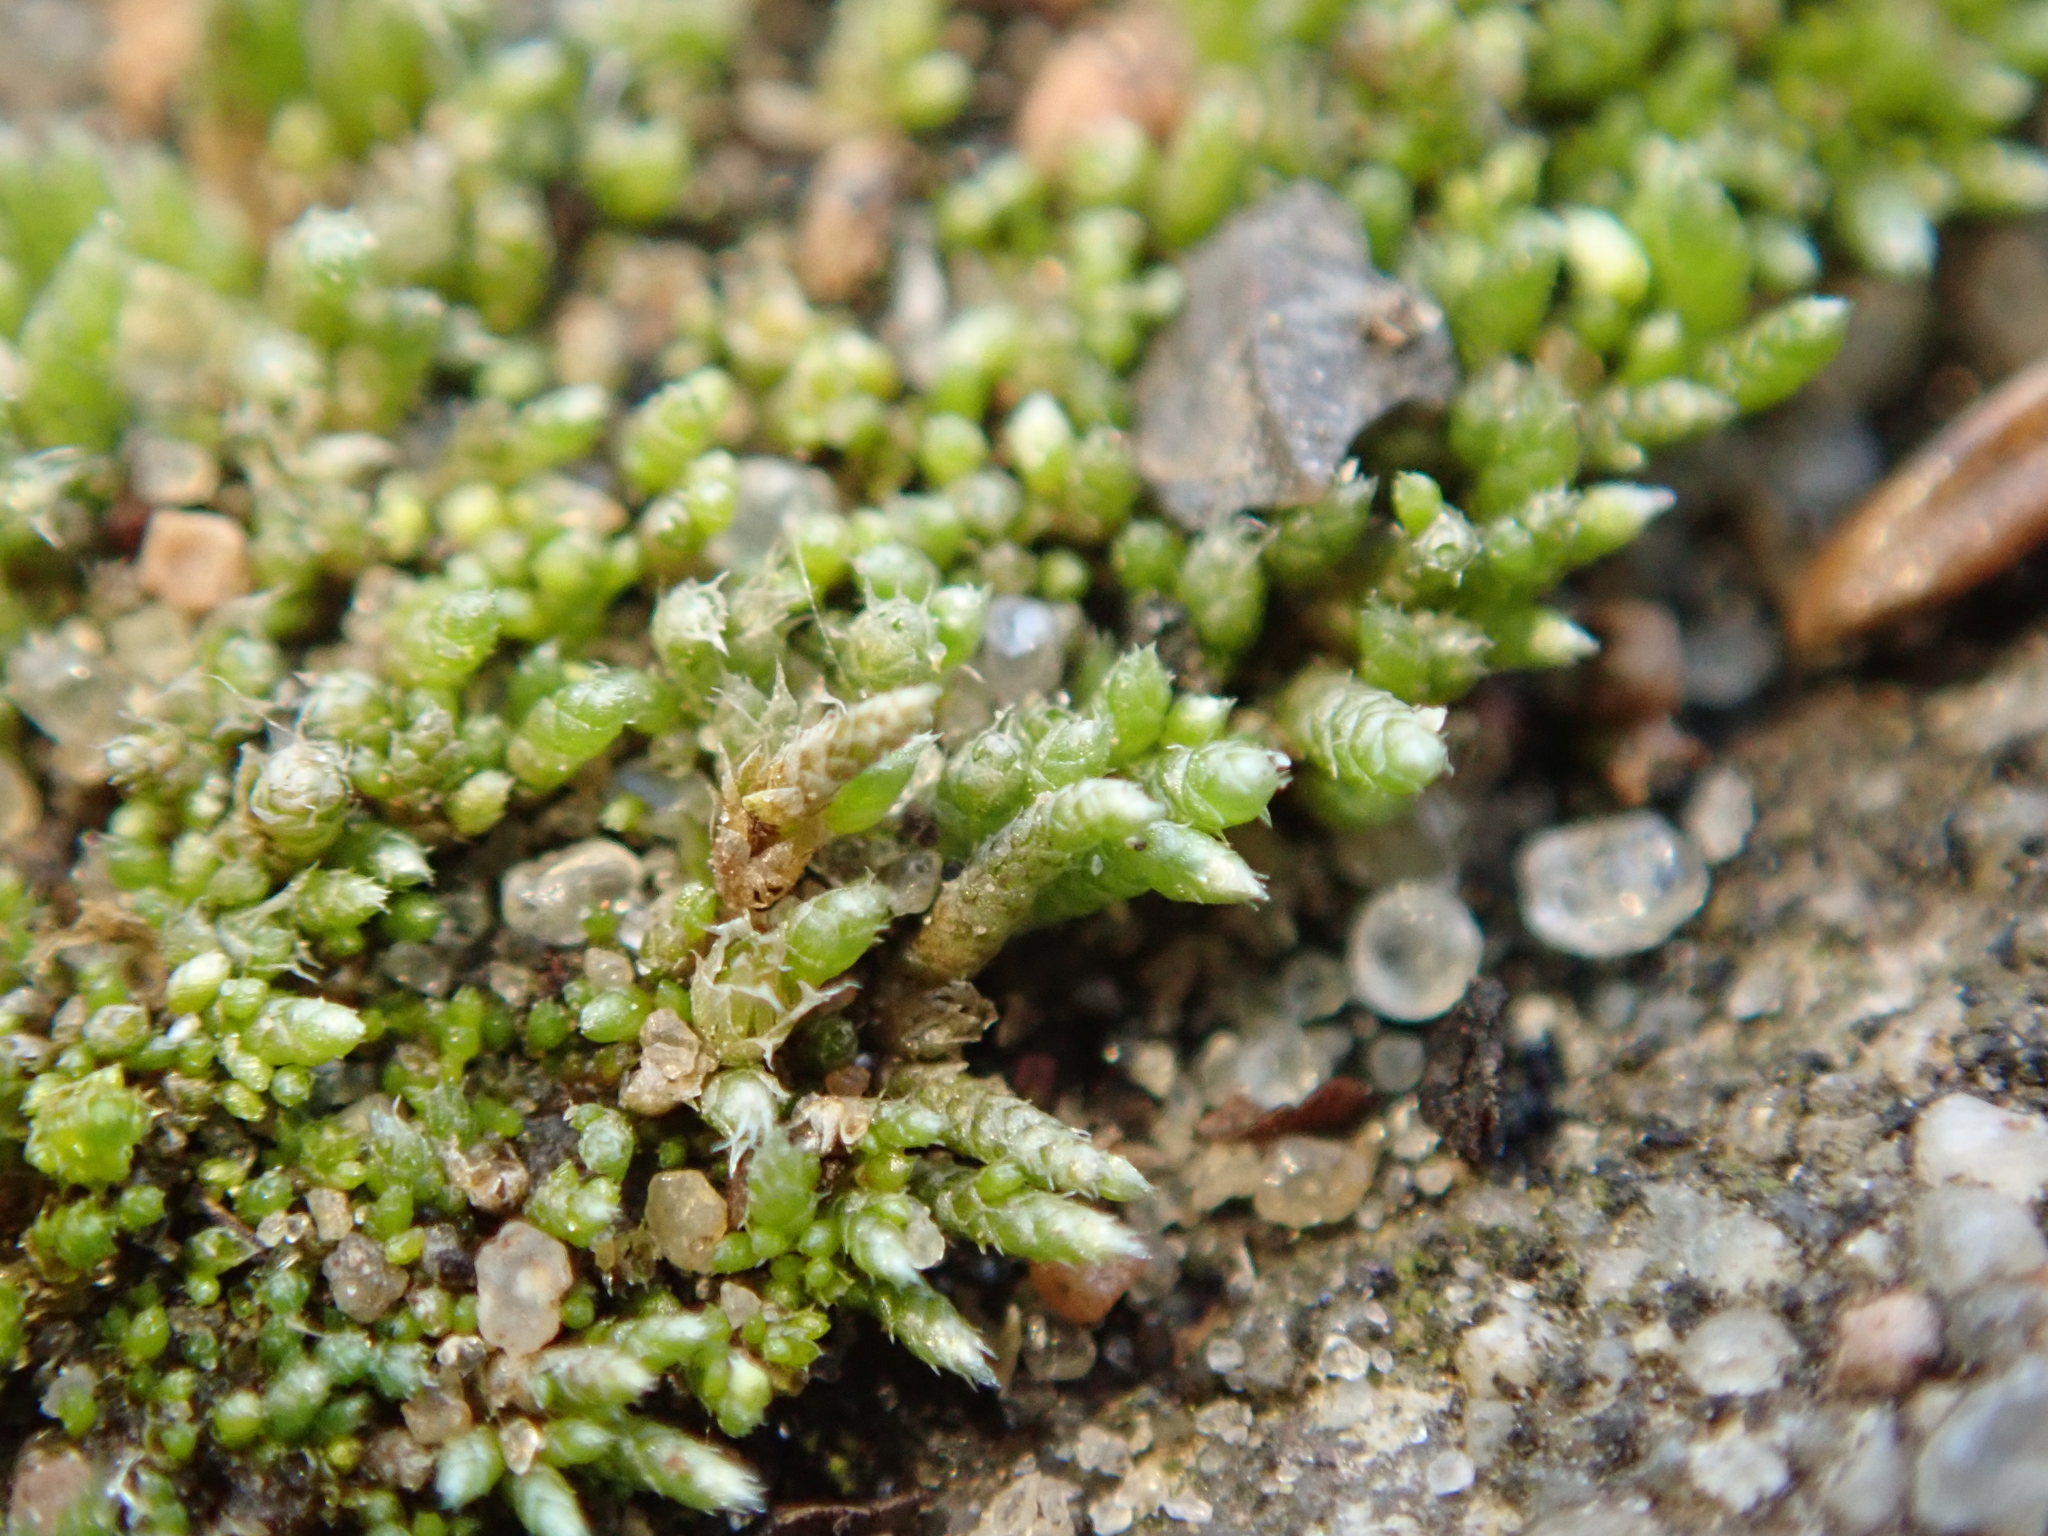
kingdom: Plantae
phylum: Bryophyta
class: Bryopsida
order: Bryales
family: Bryaceae
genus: Bryum
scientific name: Bryum argenteum
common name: Silver-moss
